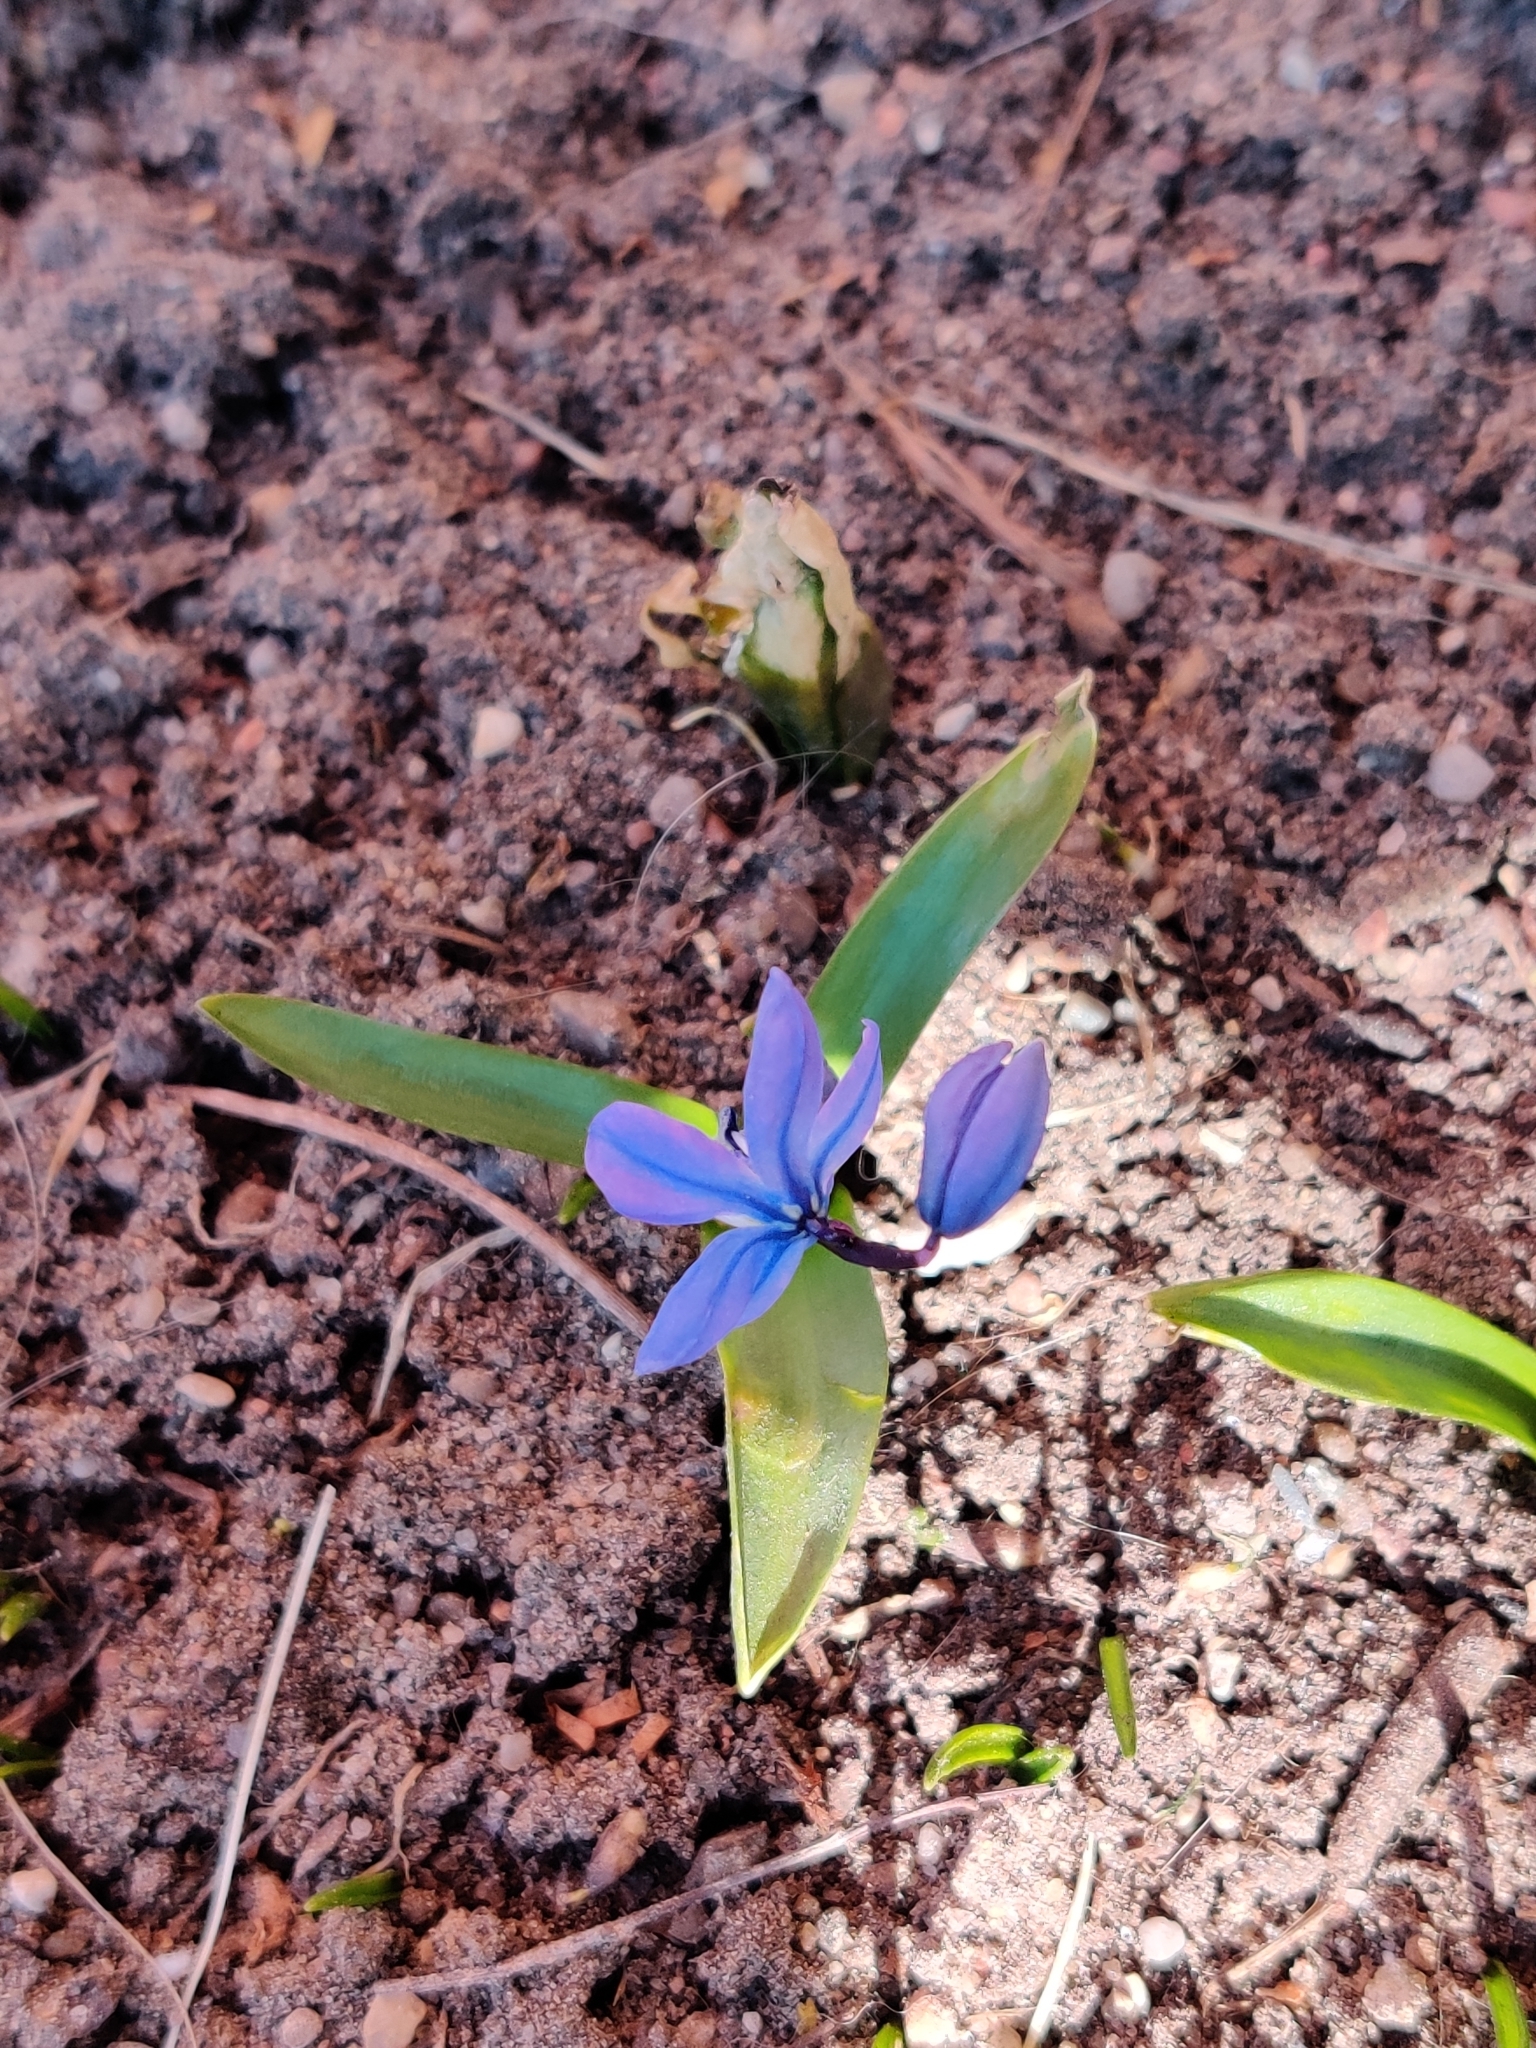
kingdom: Plantae
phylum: Tracheophyta
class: Liliopsida
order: Asparagales
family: Asparagaceae
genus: Scilla
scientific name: Scilla siberica
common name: Siberian squill
